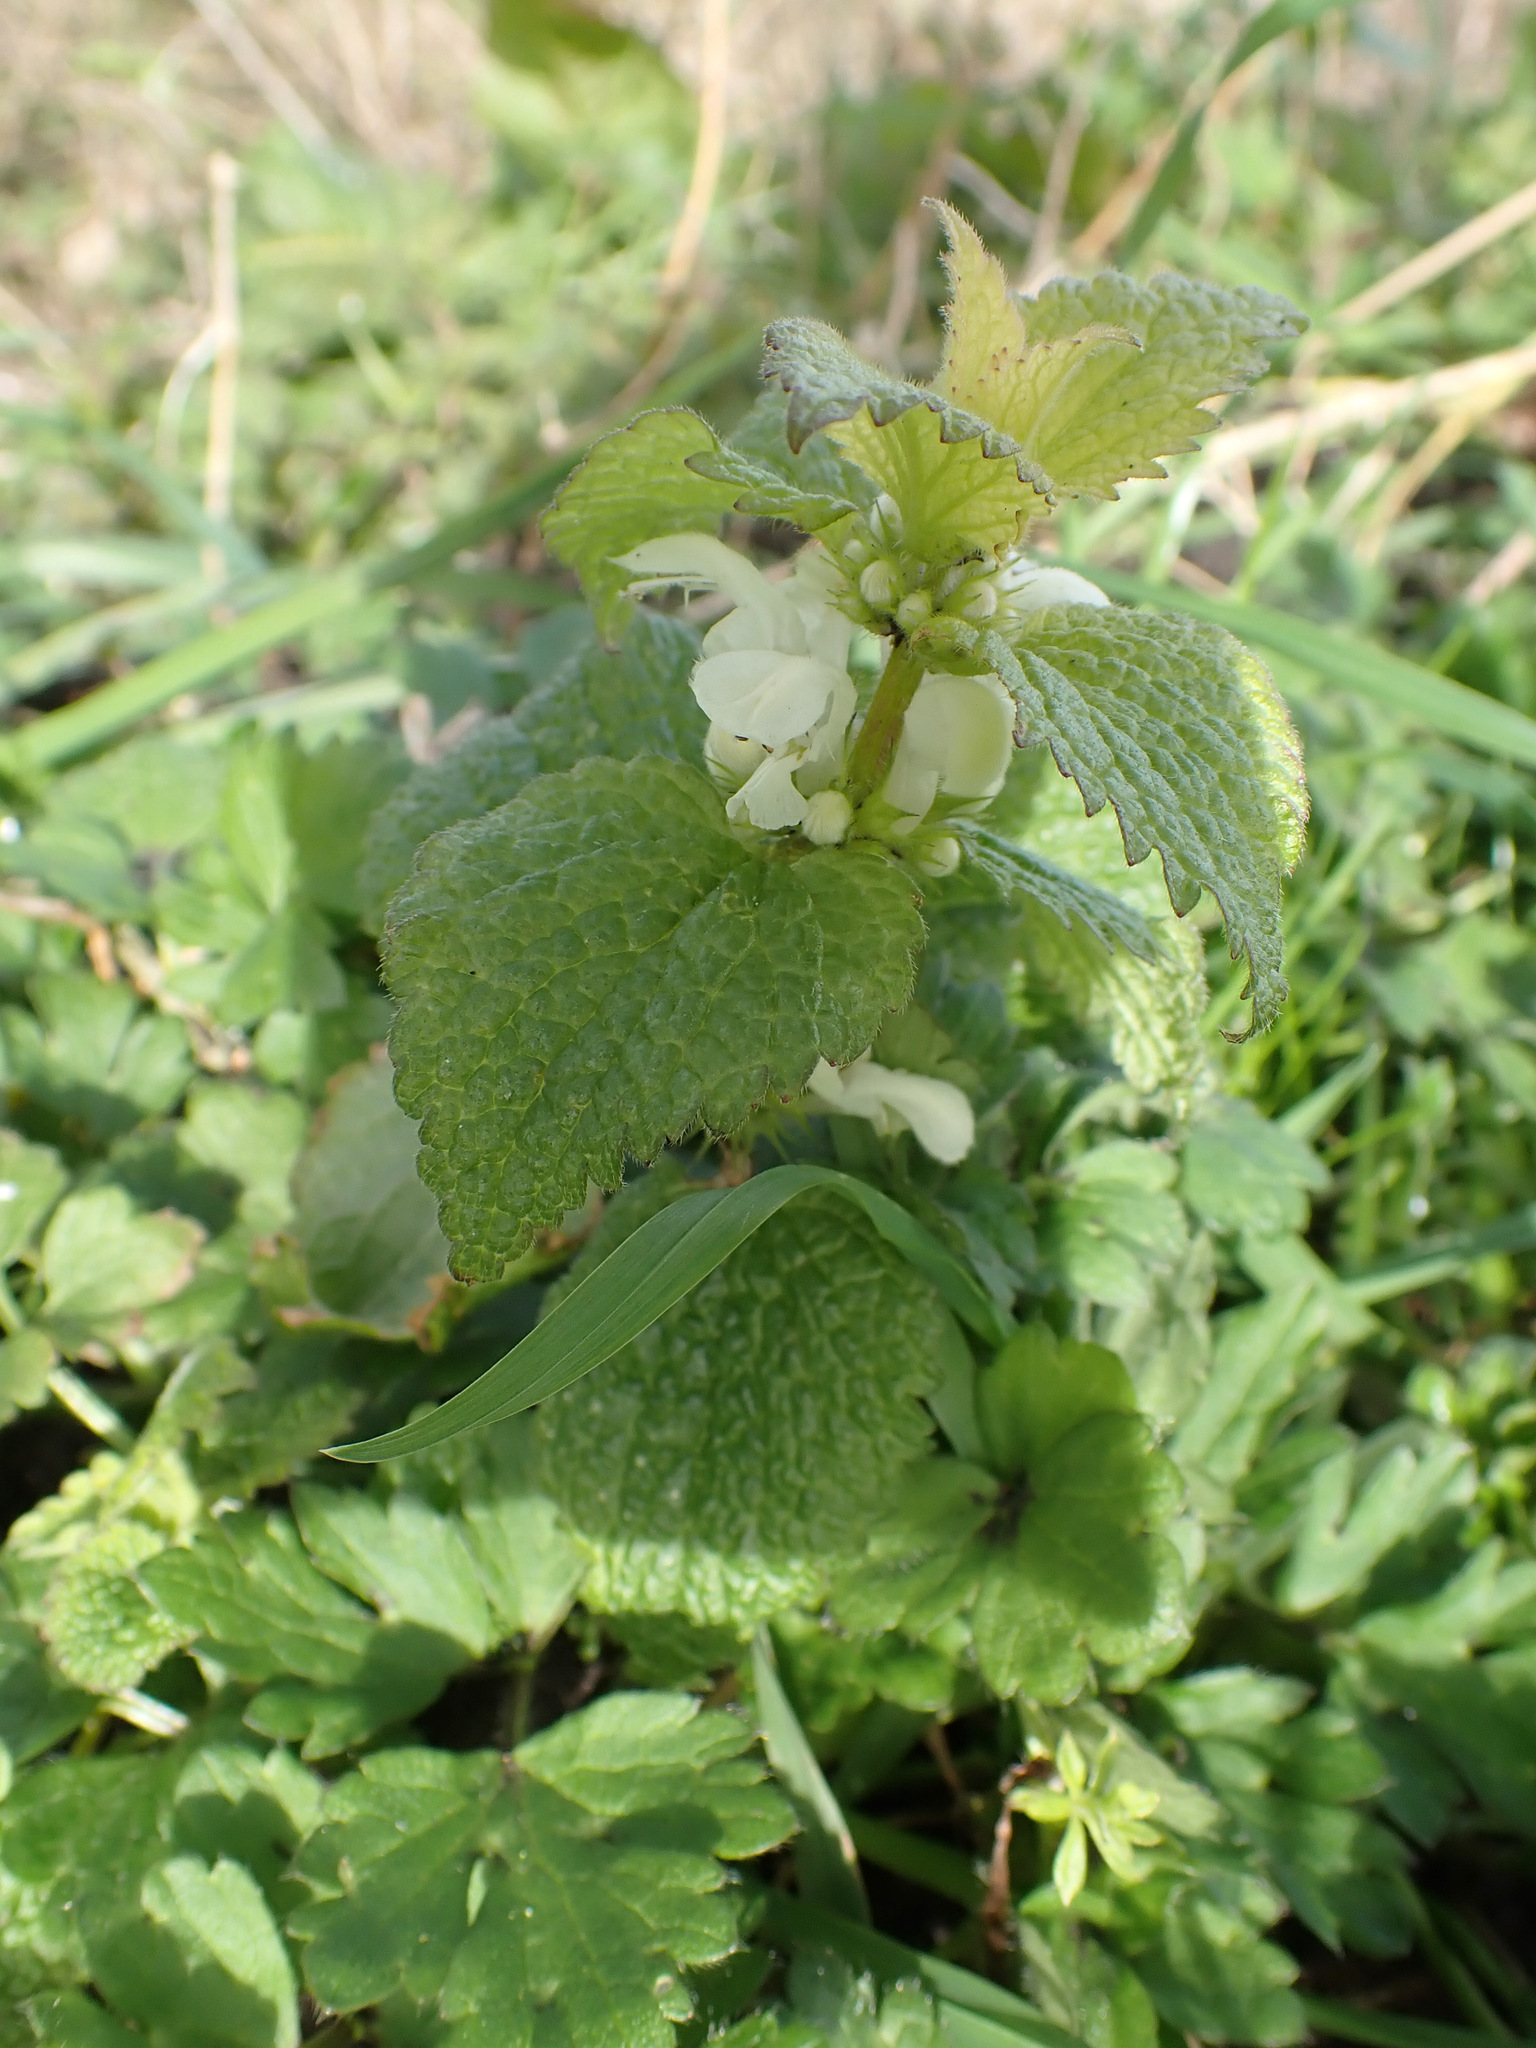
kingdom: Plantae
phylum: Tracheophyta
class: Magnoliopsida
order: Lamiales
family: Lamiaceae
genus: Lamium
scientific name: Lamium album
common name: White dead-nettle
